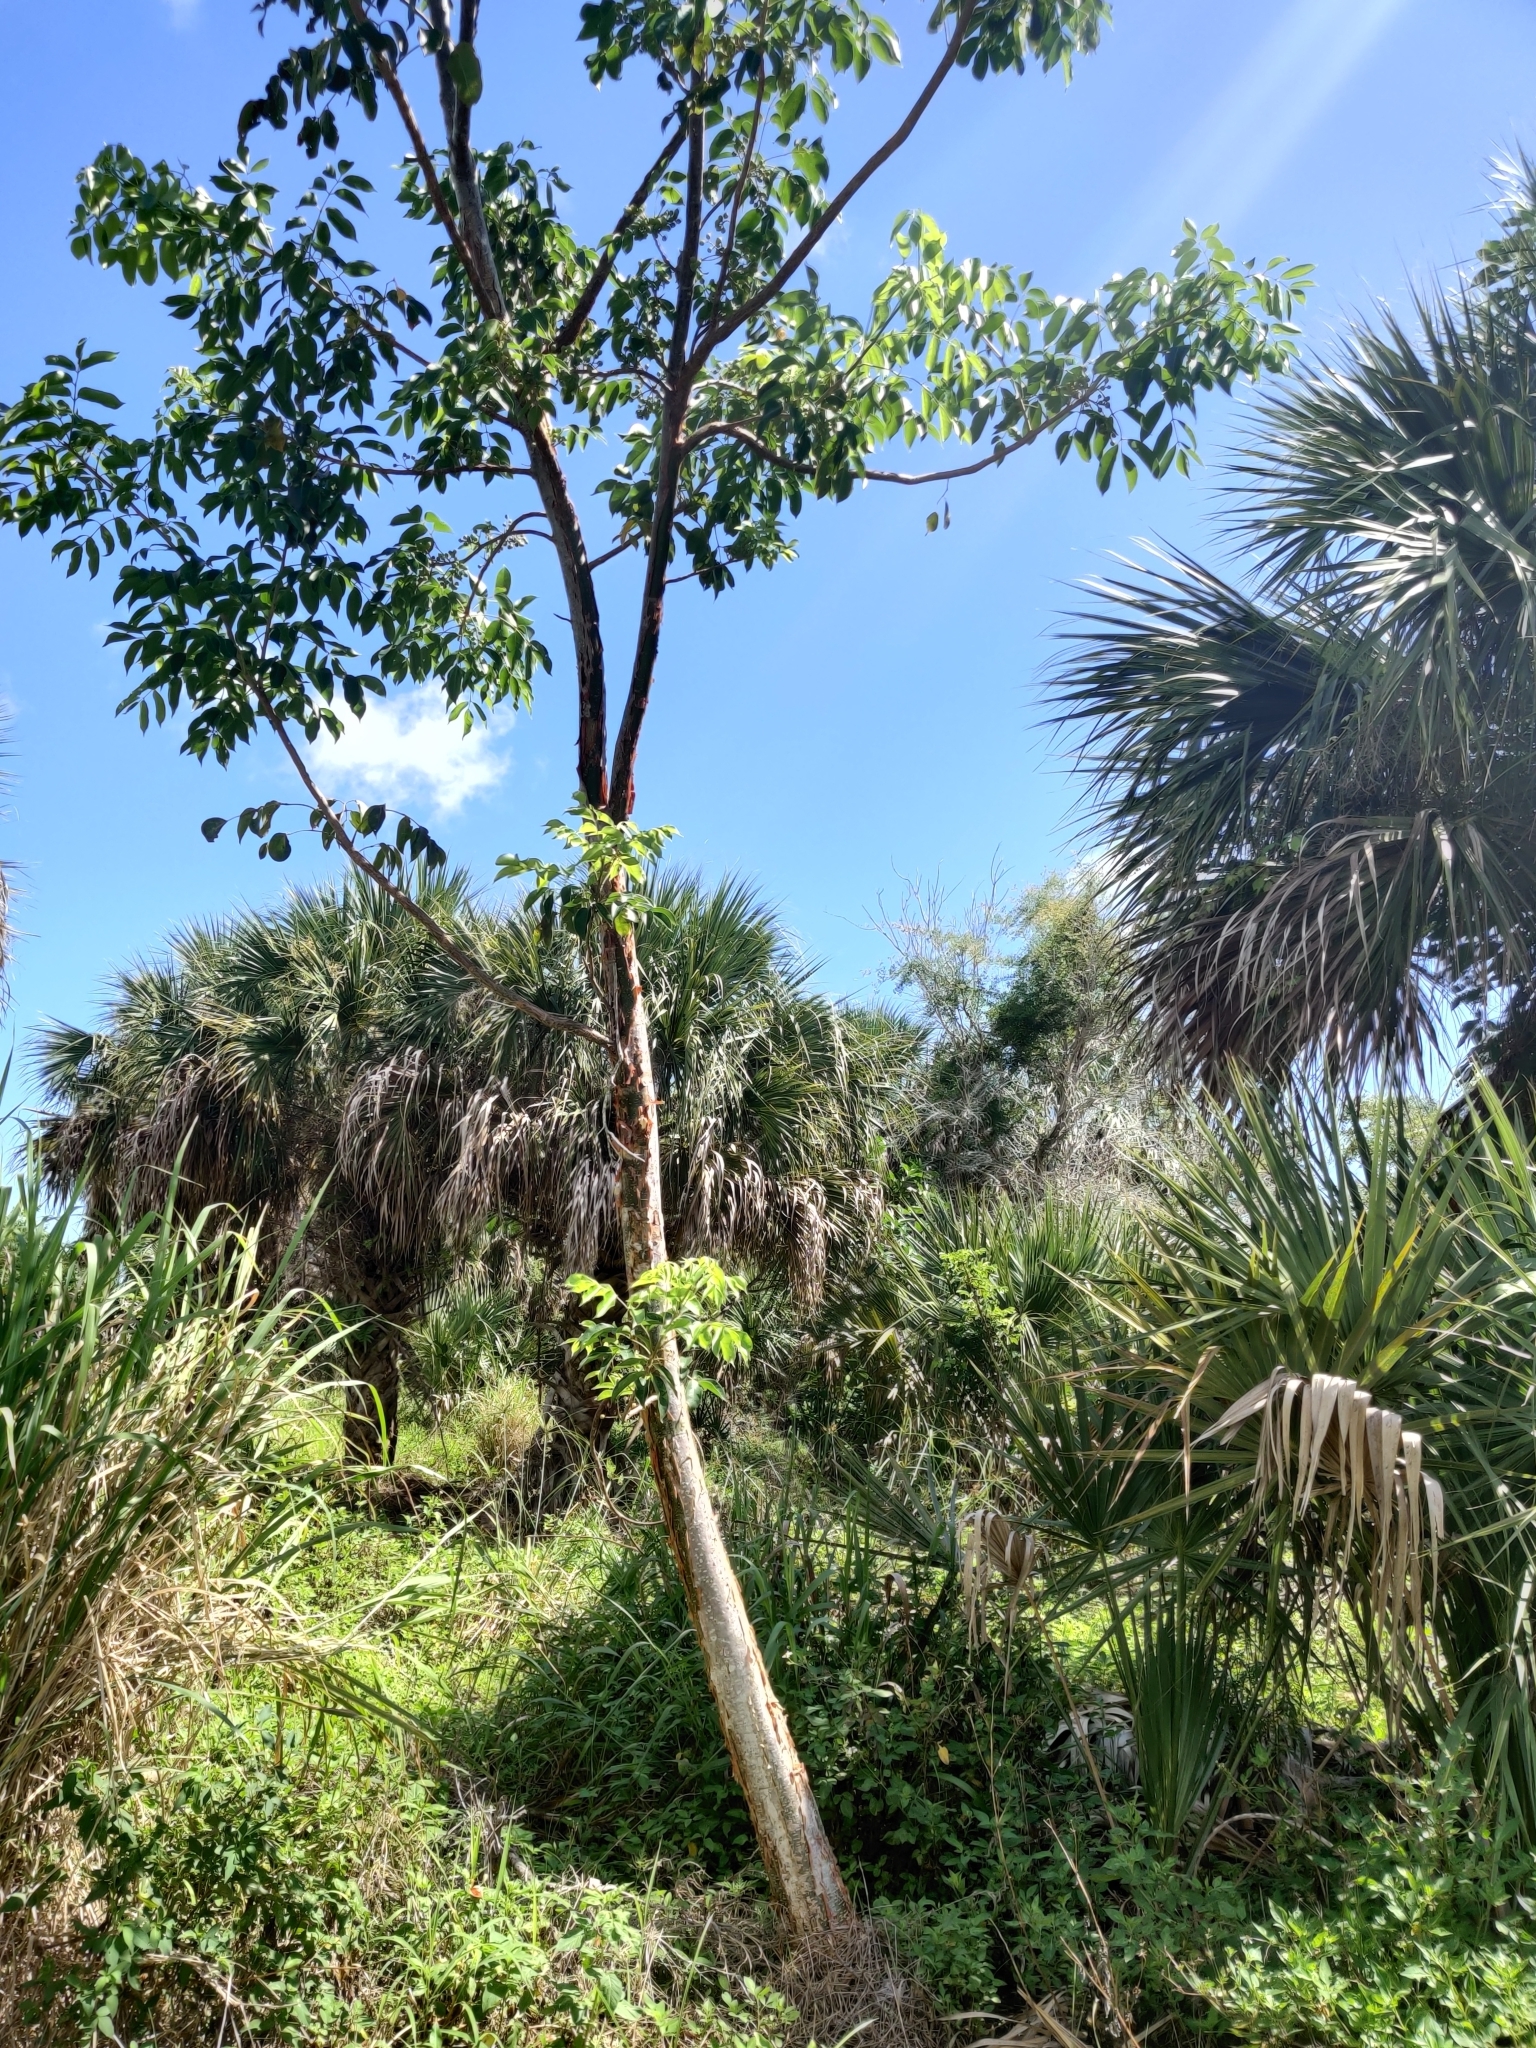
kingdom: Plantae
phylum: Tracheophyta
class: Magnoliopsida
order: Sapindales
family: Burseraceae
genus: Bursera
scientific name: Bursera simaruba
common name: Turpentine tree
